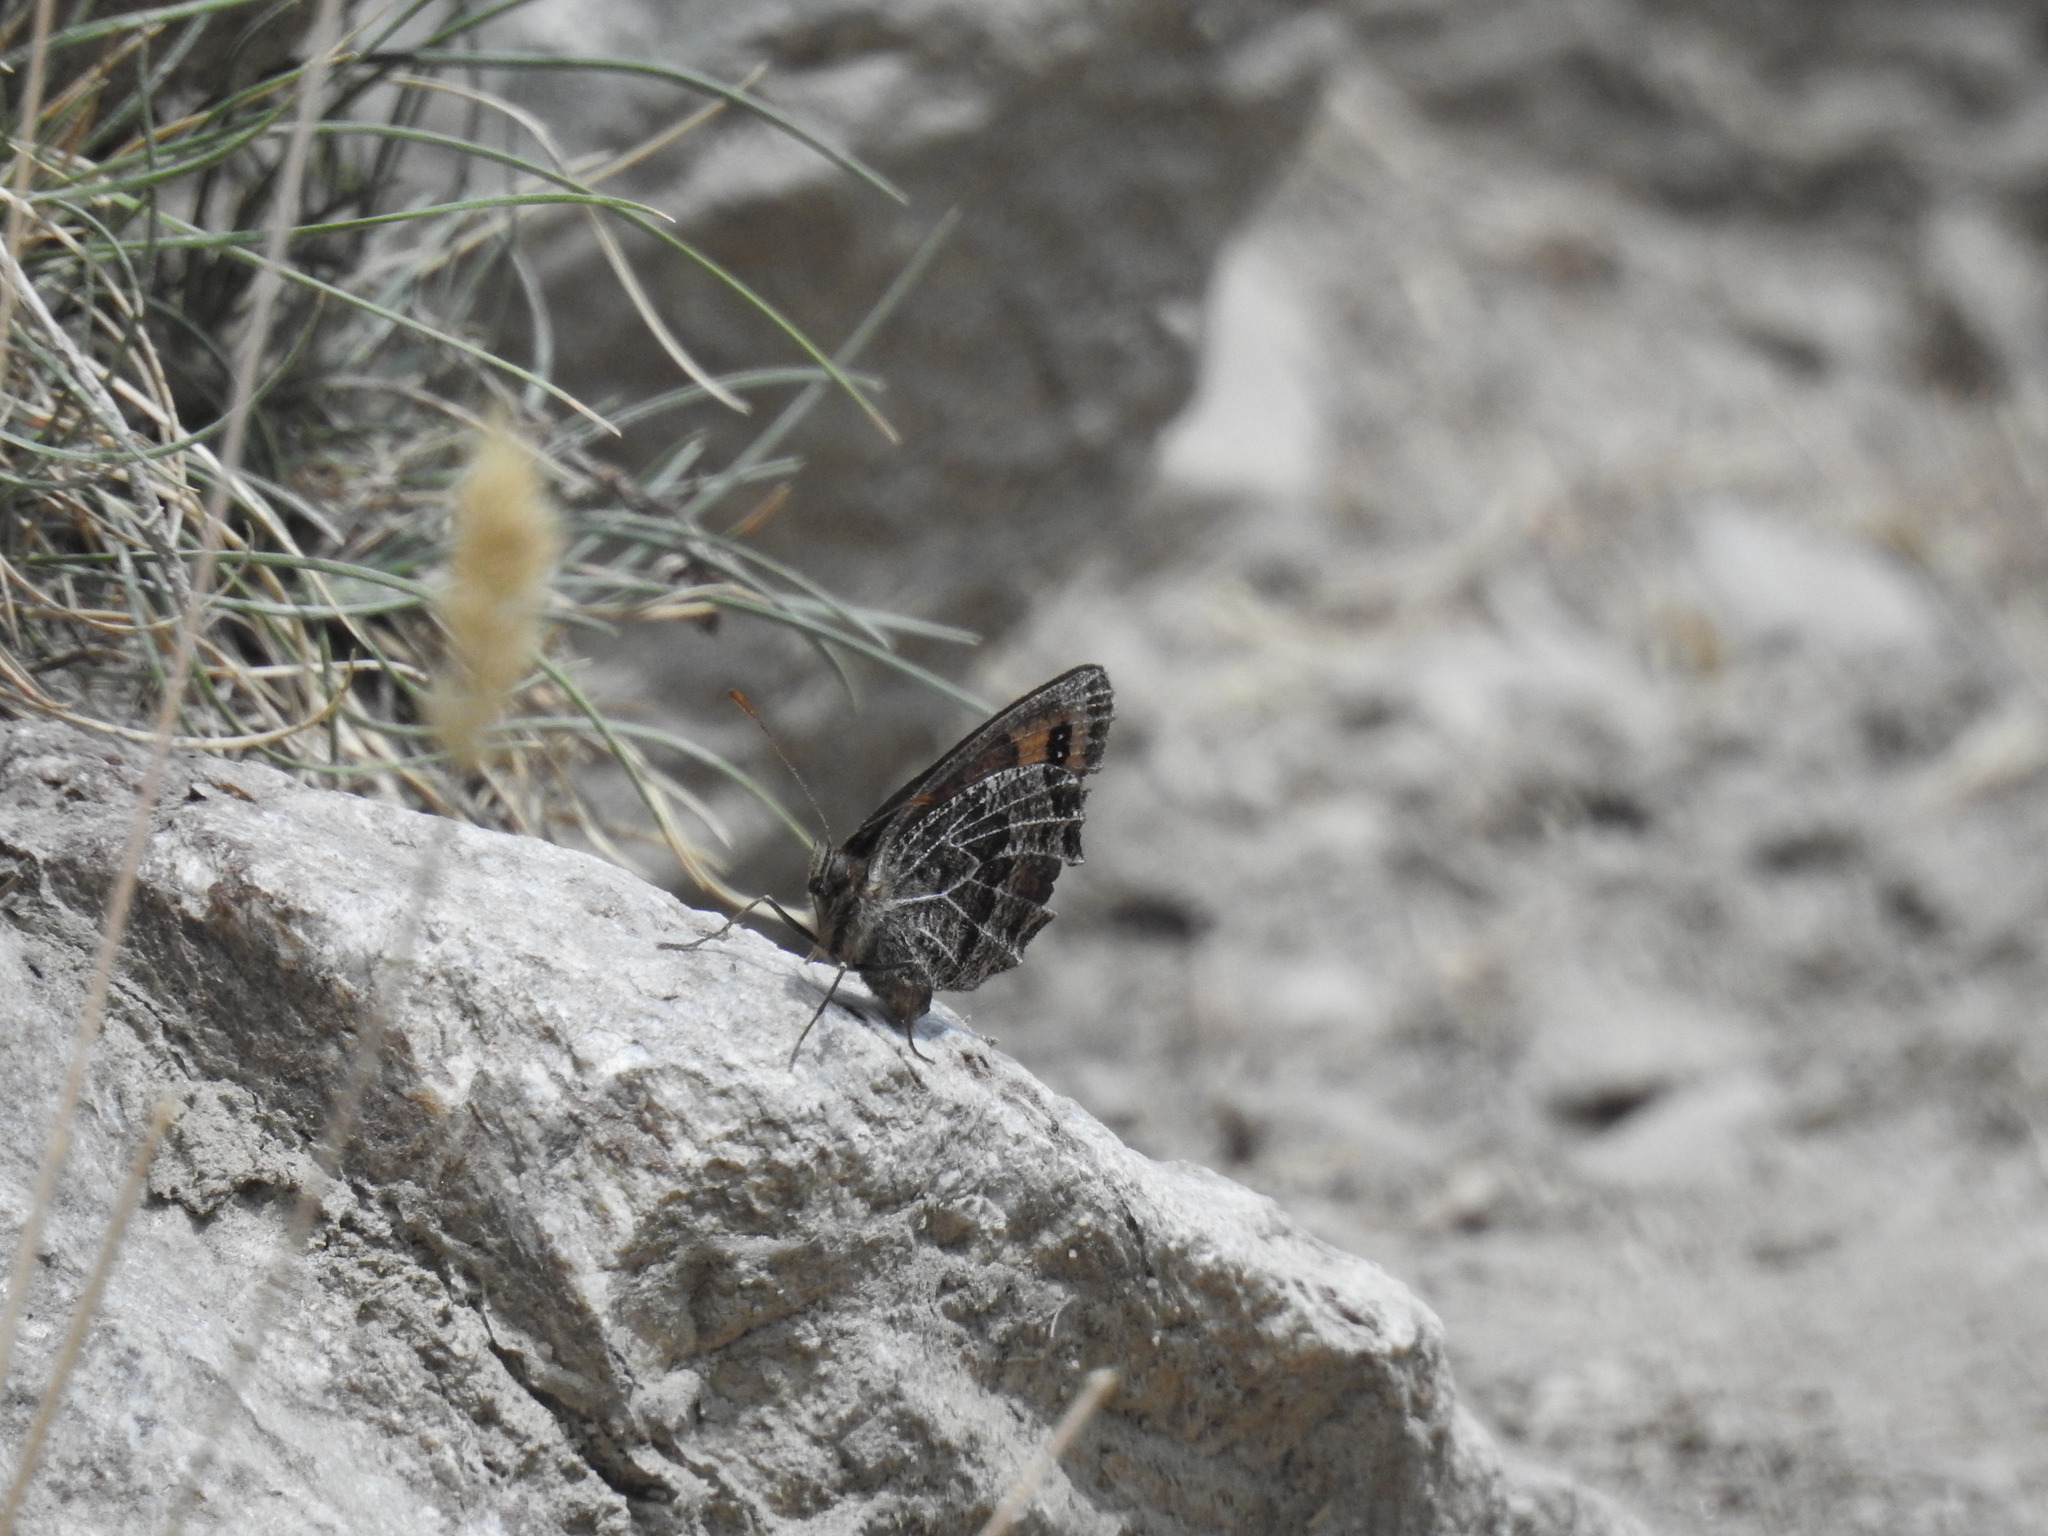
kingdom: Animalia
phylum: Arthropoda
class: Insecta
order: Lepidoptera
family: Nymphalidae
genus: Erebia
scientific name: Erebia montanus
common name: Marbled ringlet
